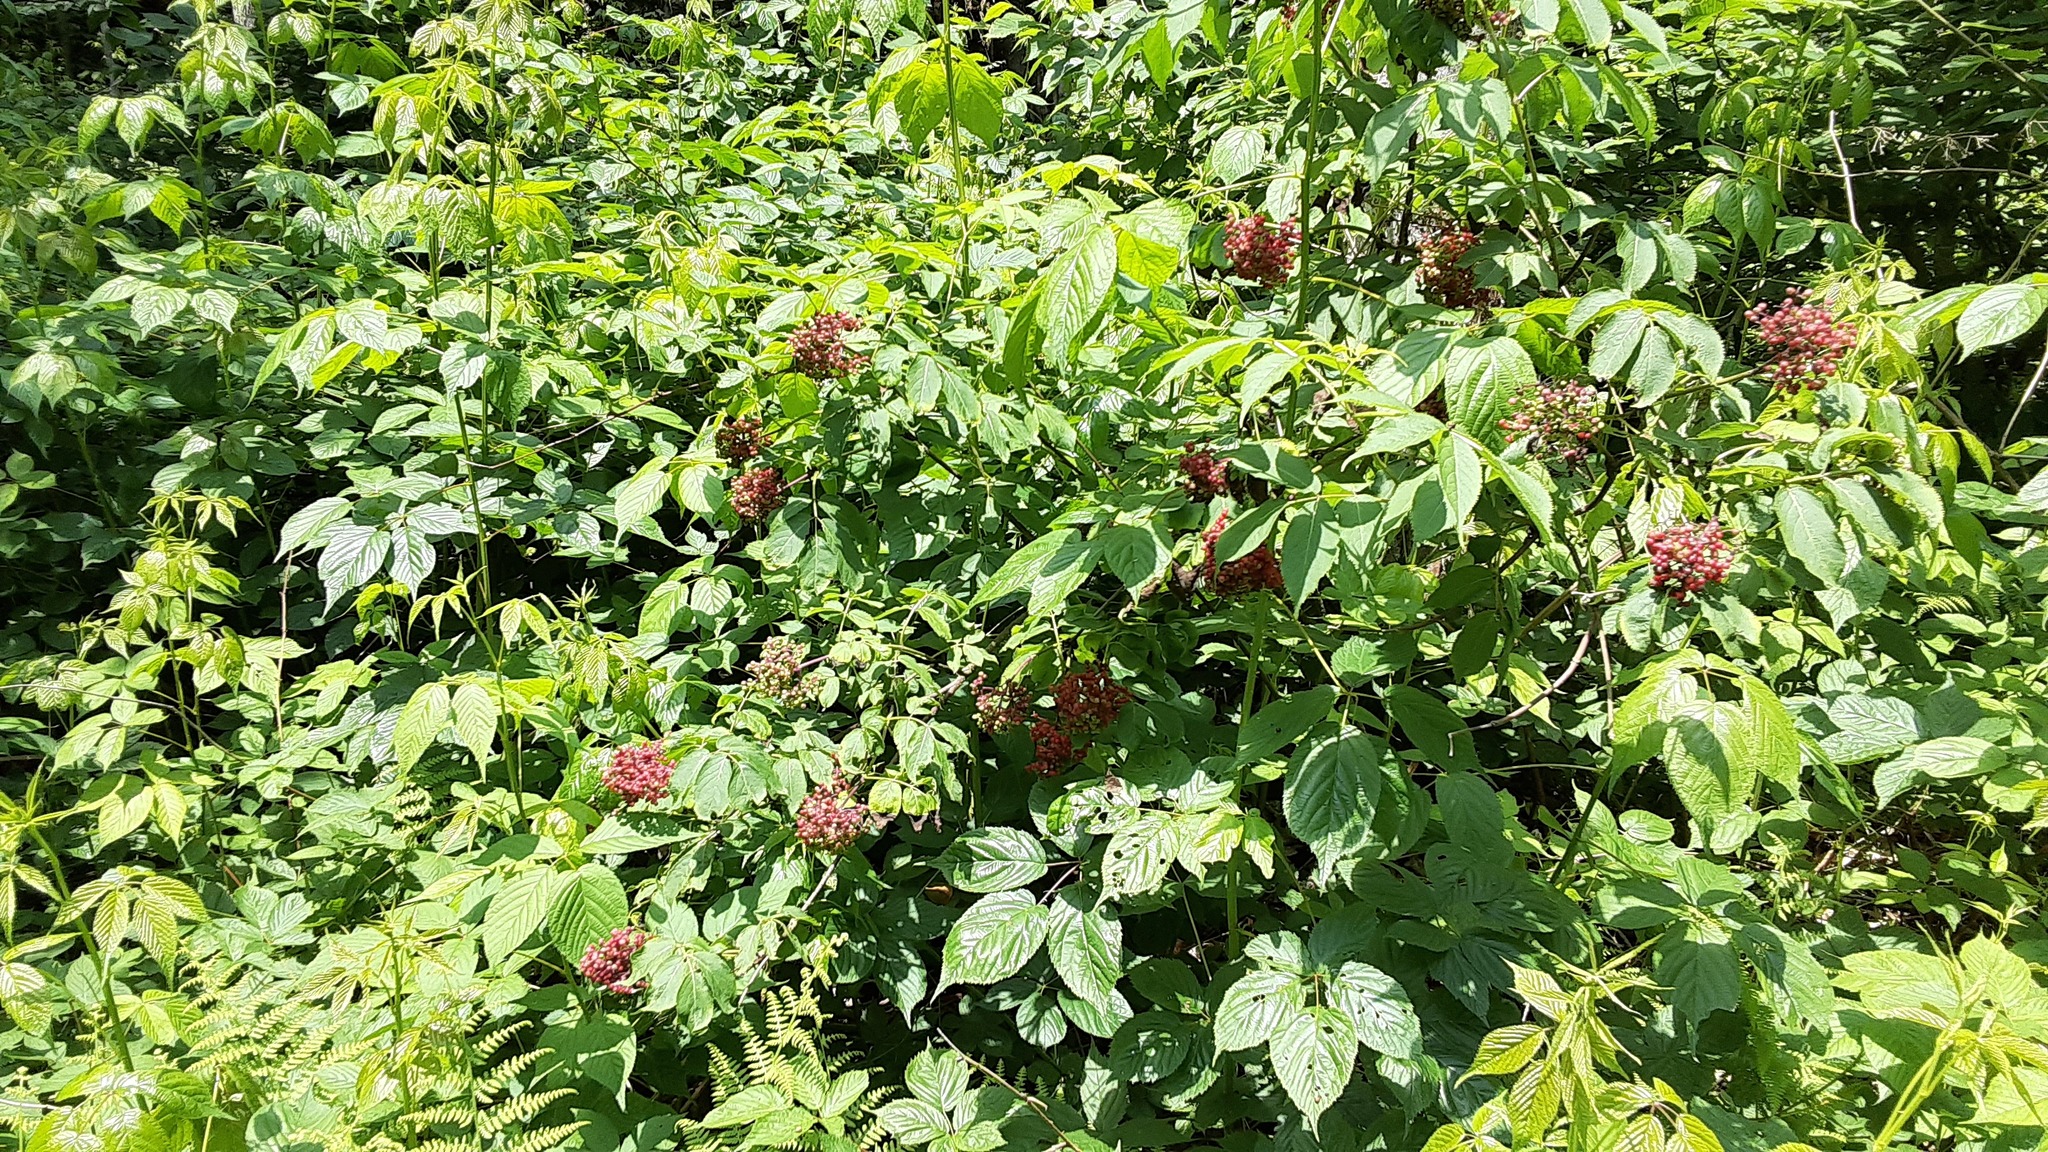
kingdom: Plantae
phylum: Tracheophyta
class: Magnoliopsida
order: Dipsacales
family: Viburnaceae
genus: Sambucus
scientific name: Sambucus racemosa
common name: Red-berried elder
